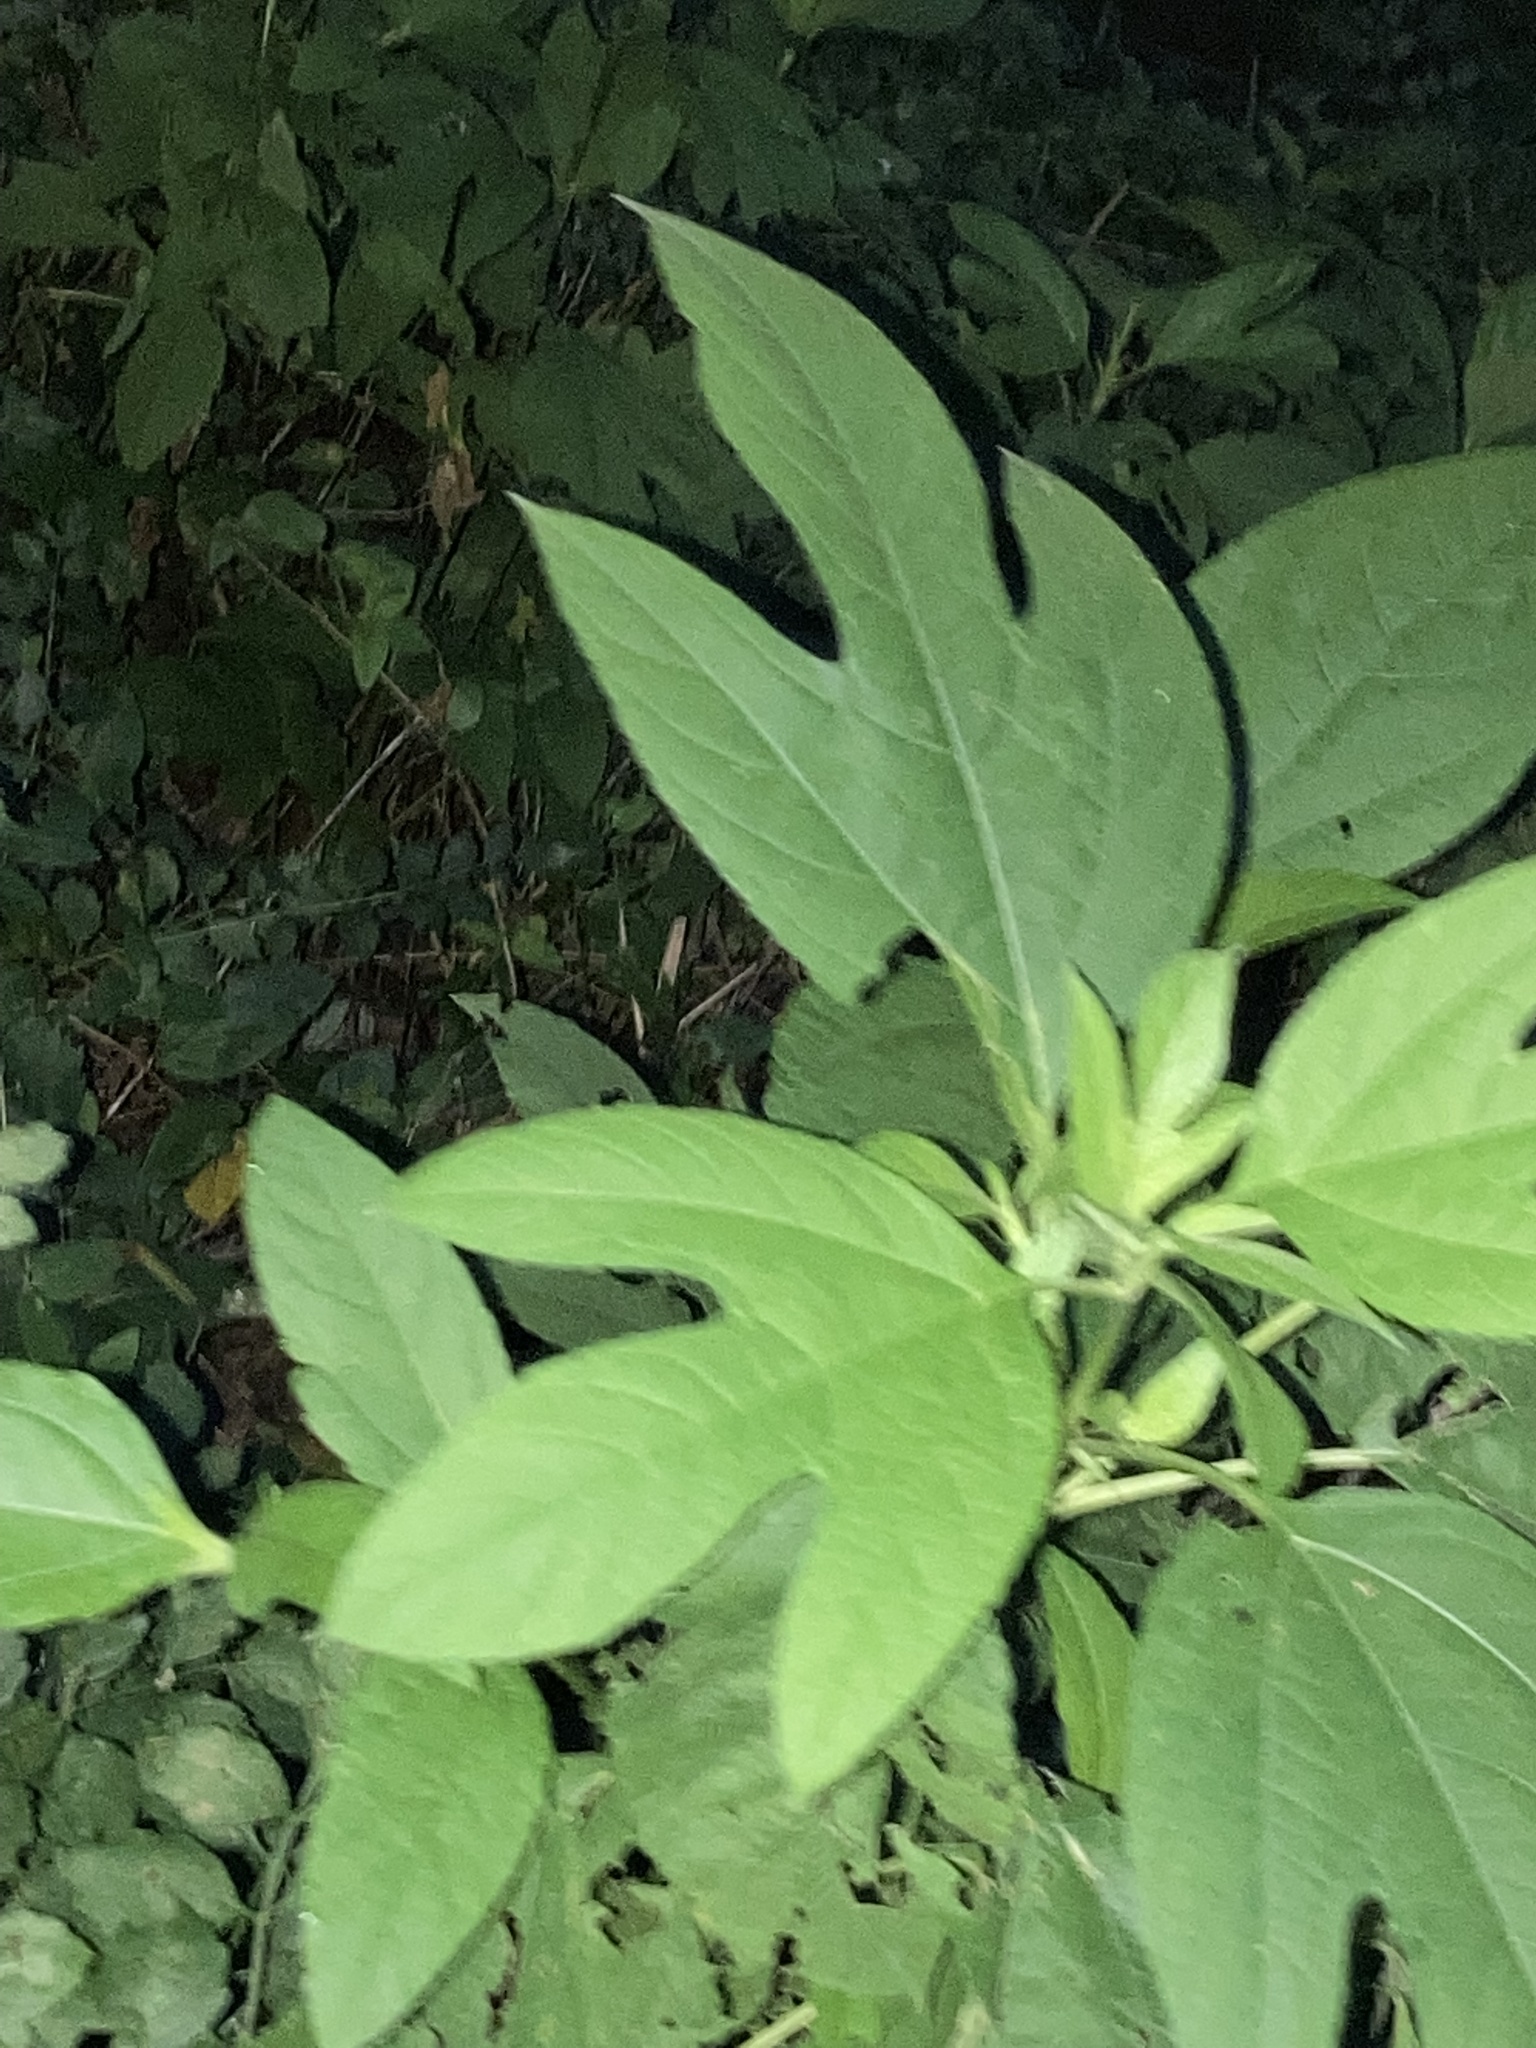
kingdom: Plantae
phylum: Tracheophyta
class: Magnoliopsida
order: Asterales
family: Asteraceae
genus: Ambrosia
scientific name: Ambrosia trifida
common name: Giant ragweed
